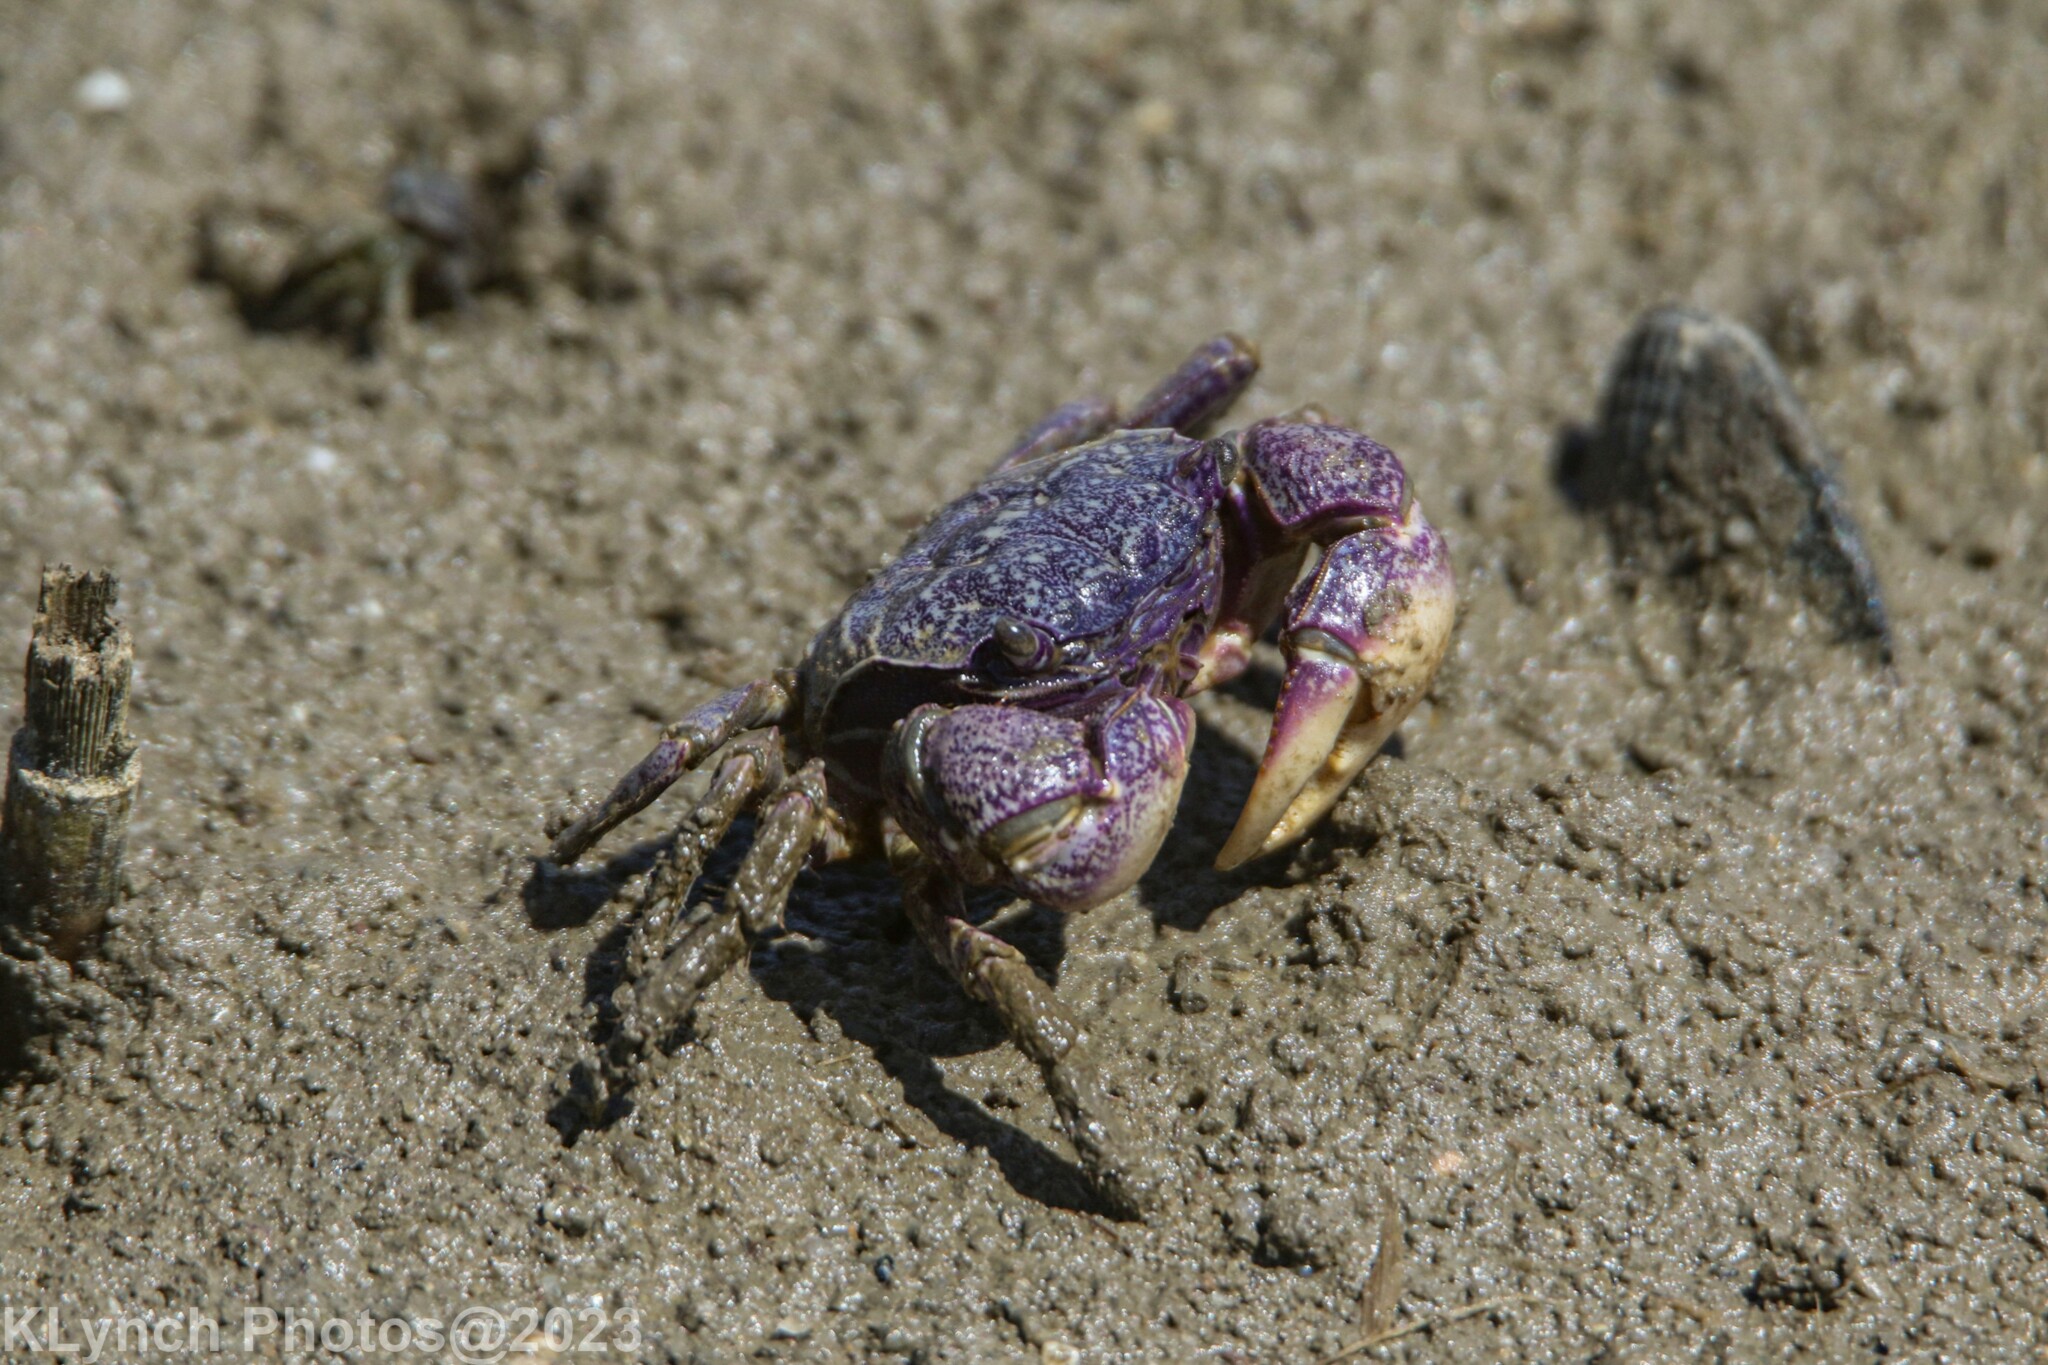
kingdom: Animalia
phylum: Arthropoda
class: Malacostraca
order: Decapoda
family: Sesarmidae
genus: Sesarma
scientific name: Sesarma reticulatum
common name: Heavy marsh crab
